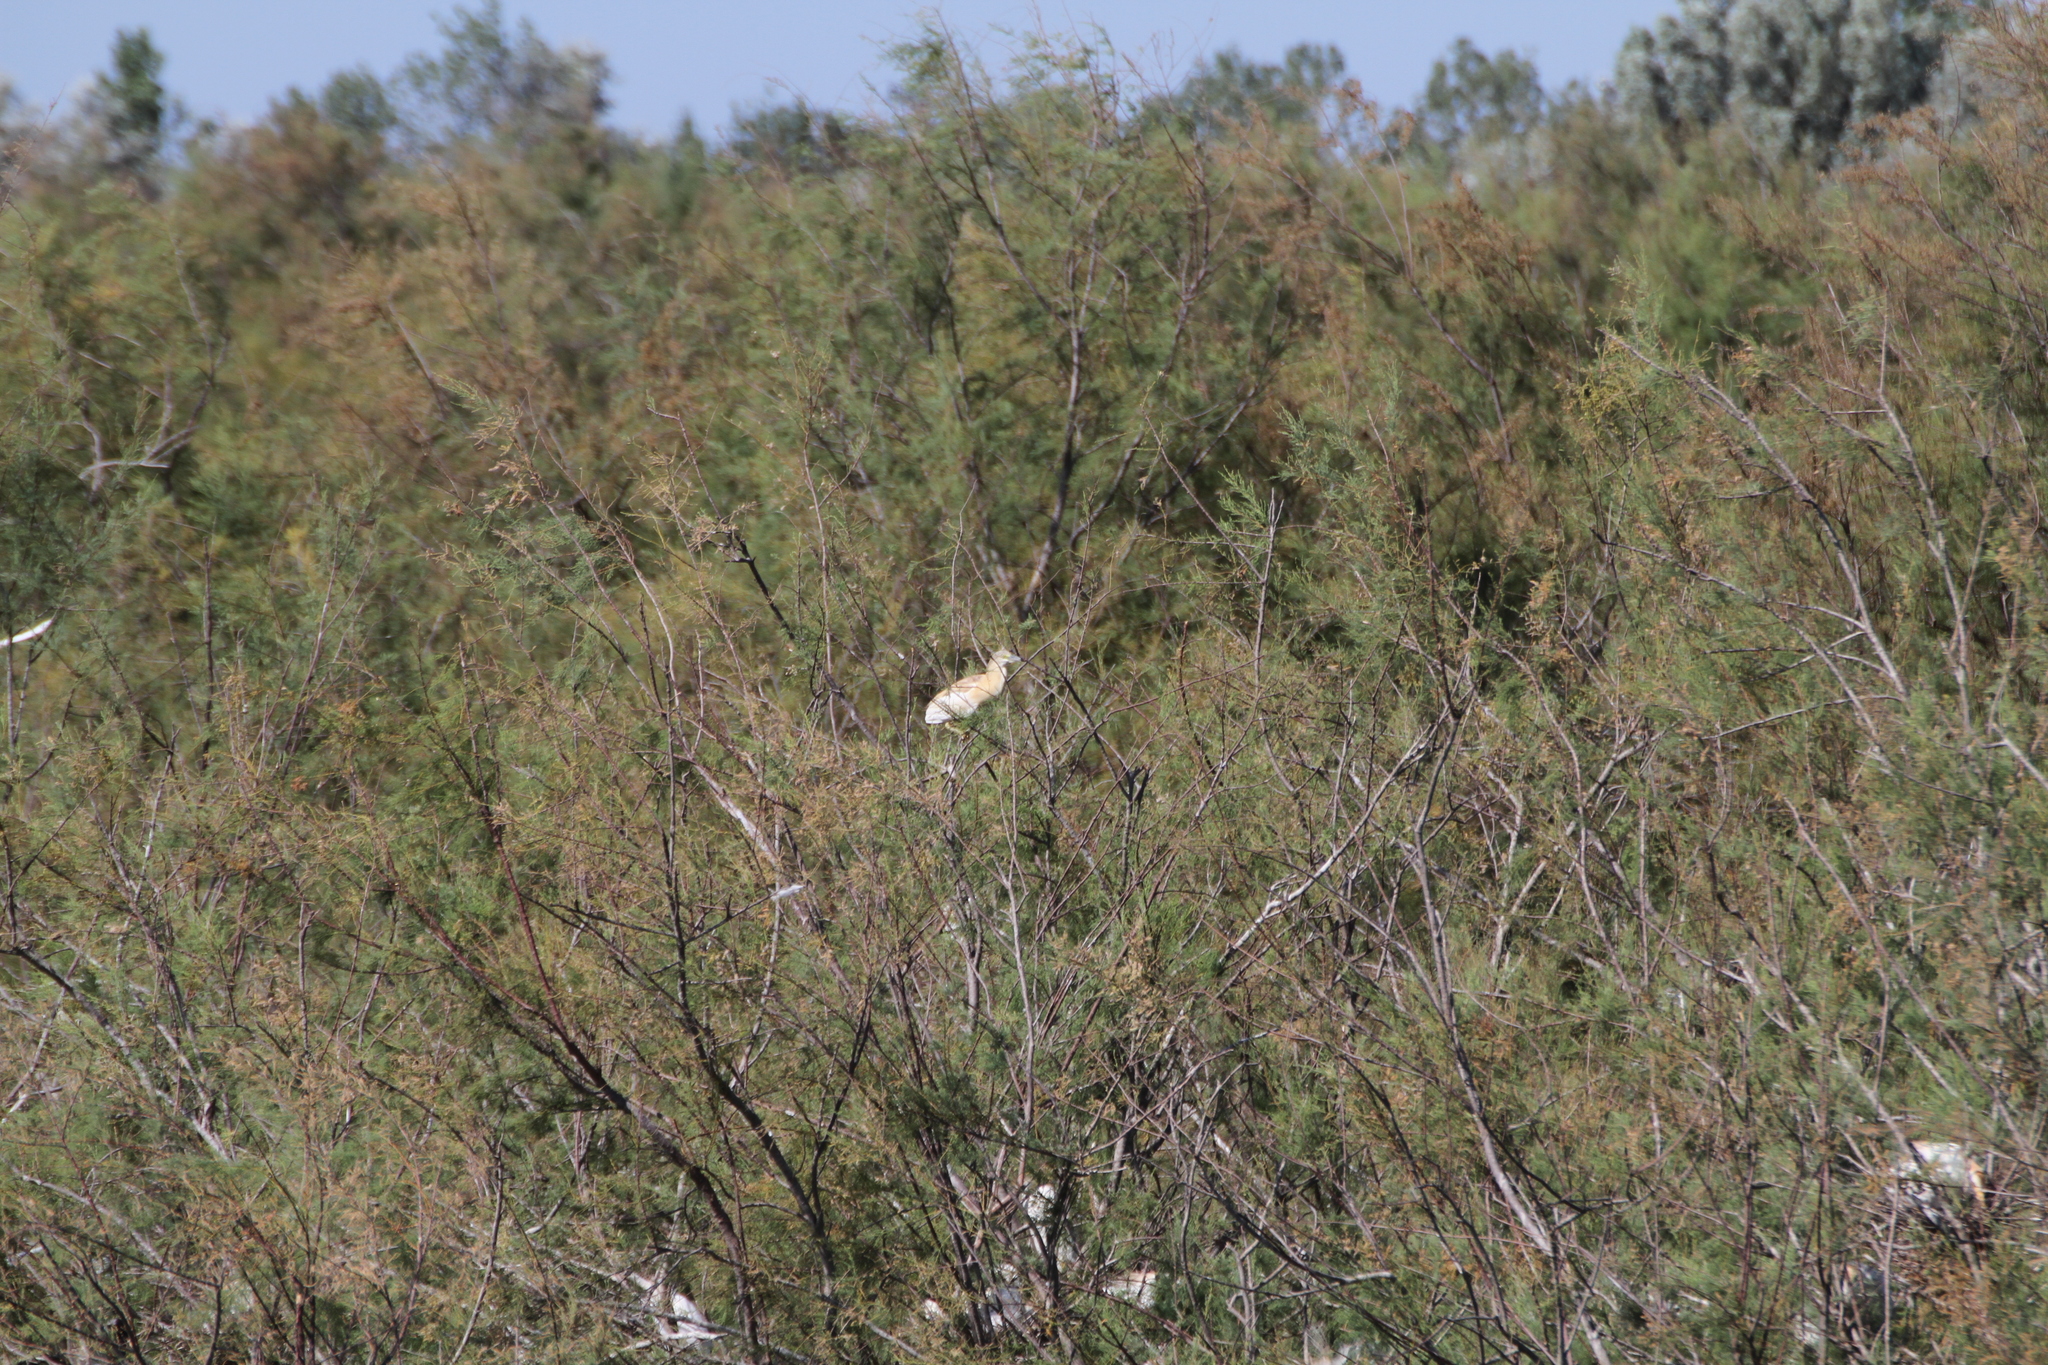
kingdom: Animalia
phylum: Chordata
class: Aves
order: Pelecaniformes
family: Ardeidae
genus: Ardeola
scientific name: Ardeola ralloides
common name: Squacco heron
